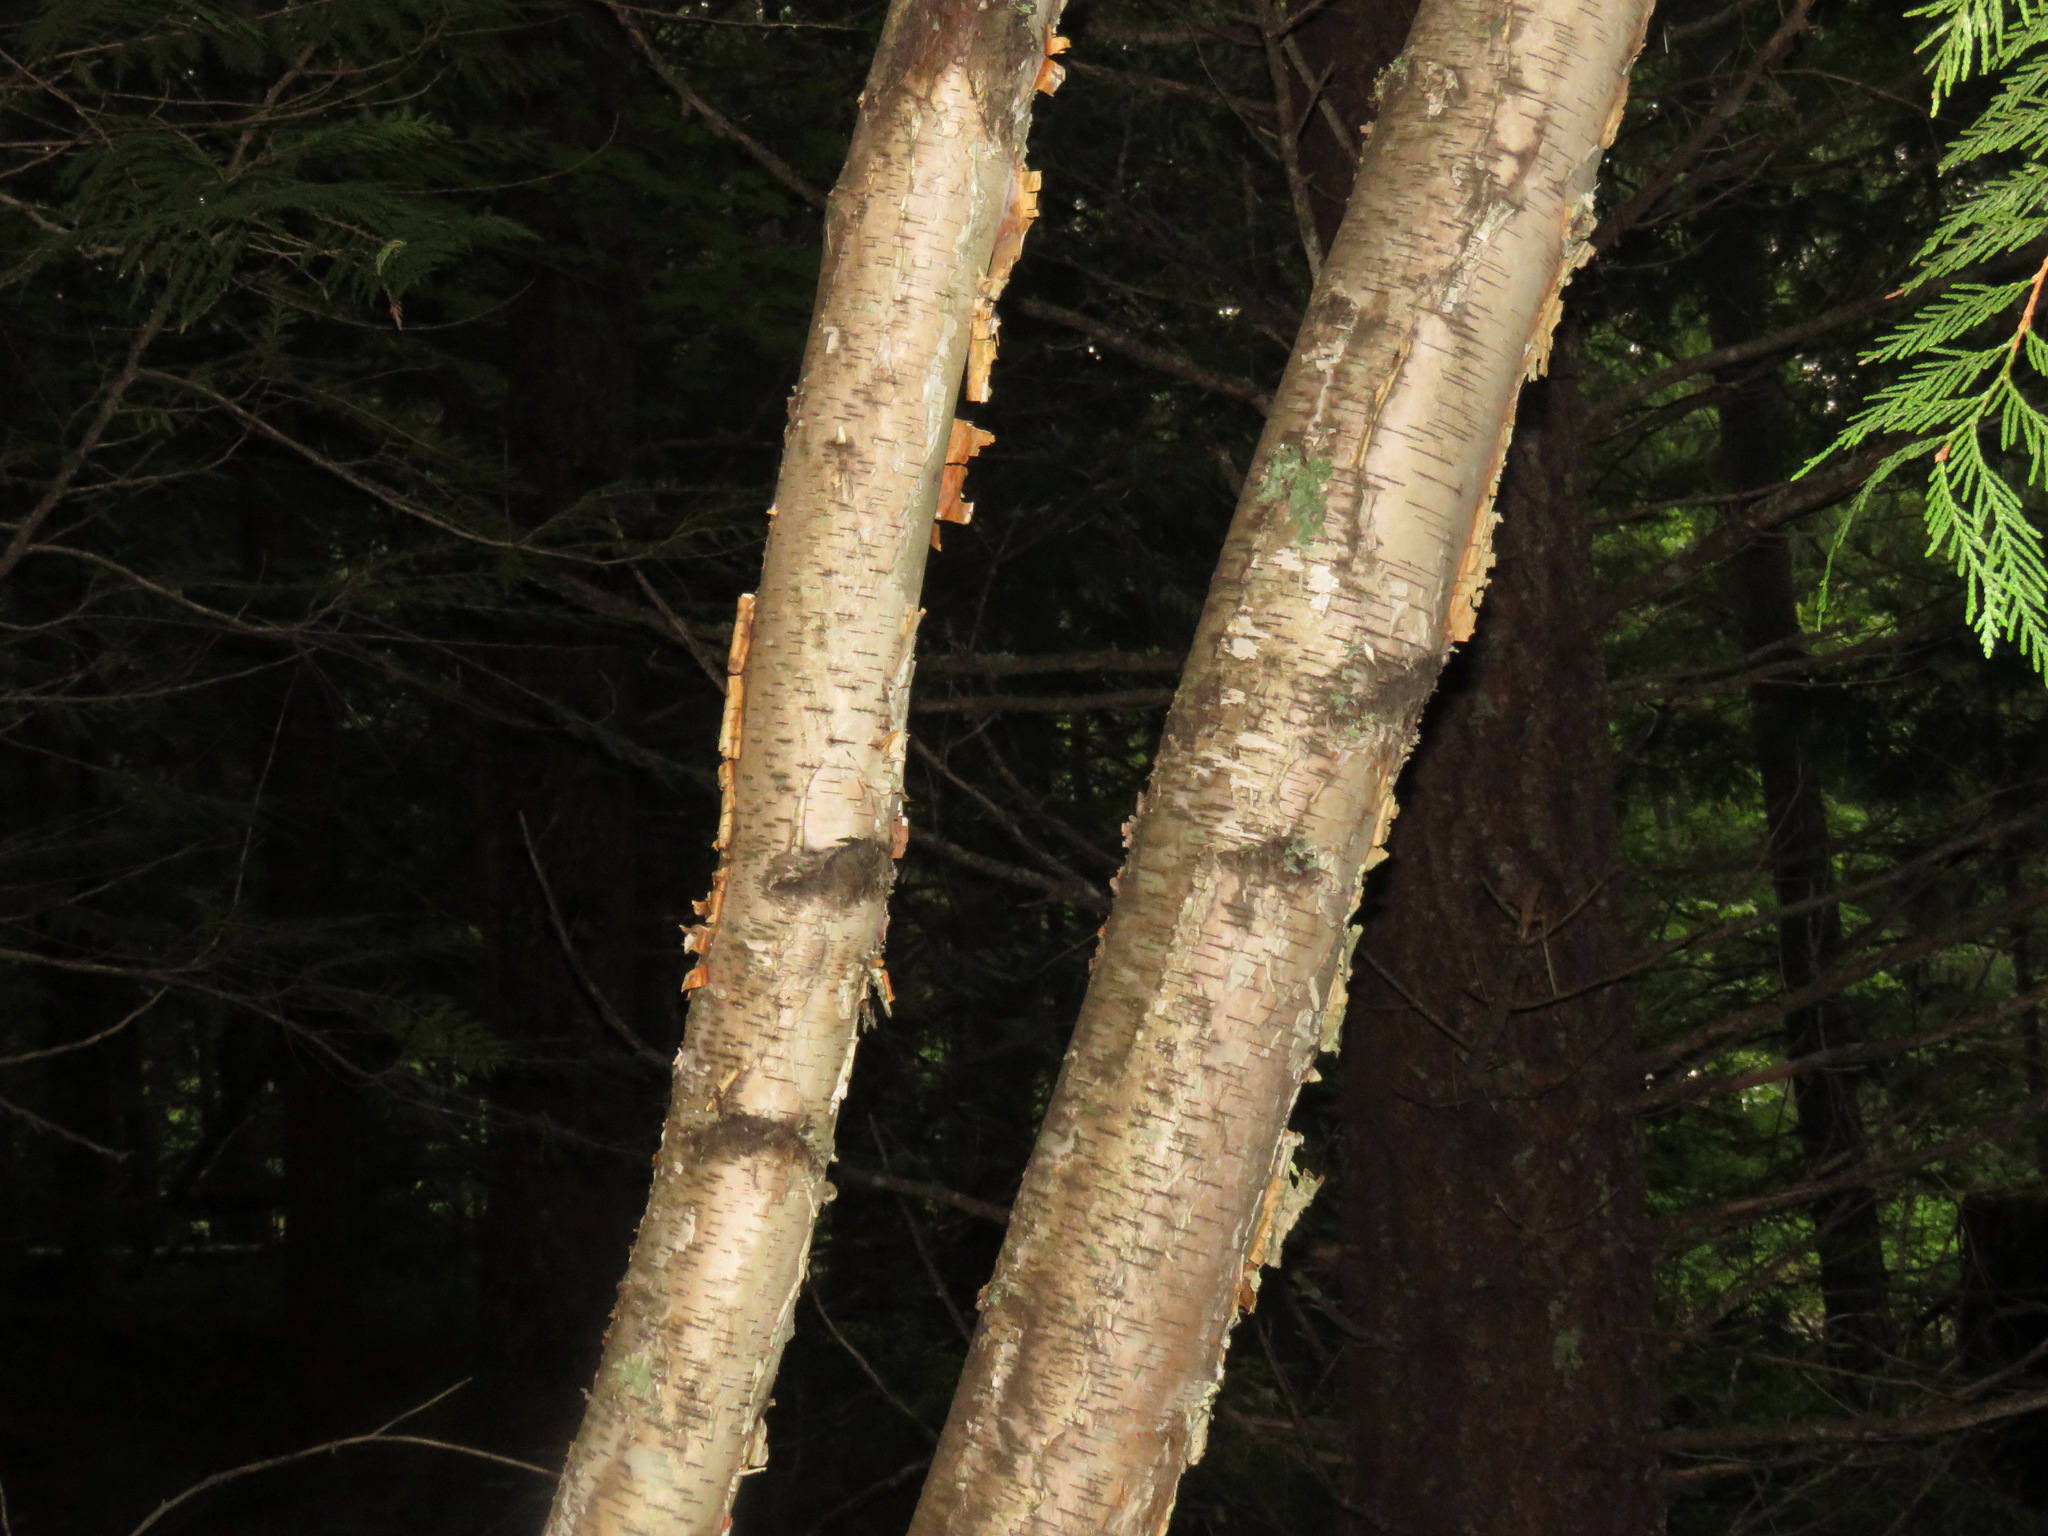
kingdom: Plantae
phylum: Tracheophyta
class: Magnoliopsida
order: Fagales
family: Betulaceae
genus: Betula
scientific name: Betula papyrifera
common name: Paper birch
